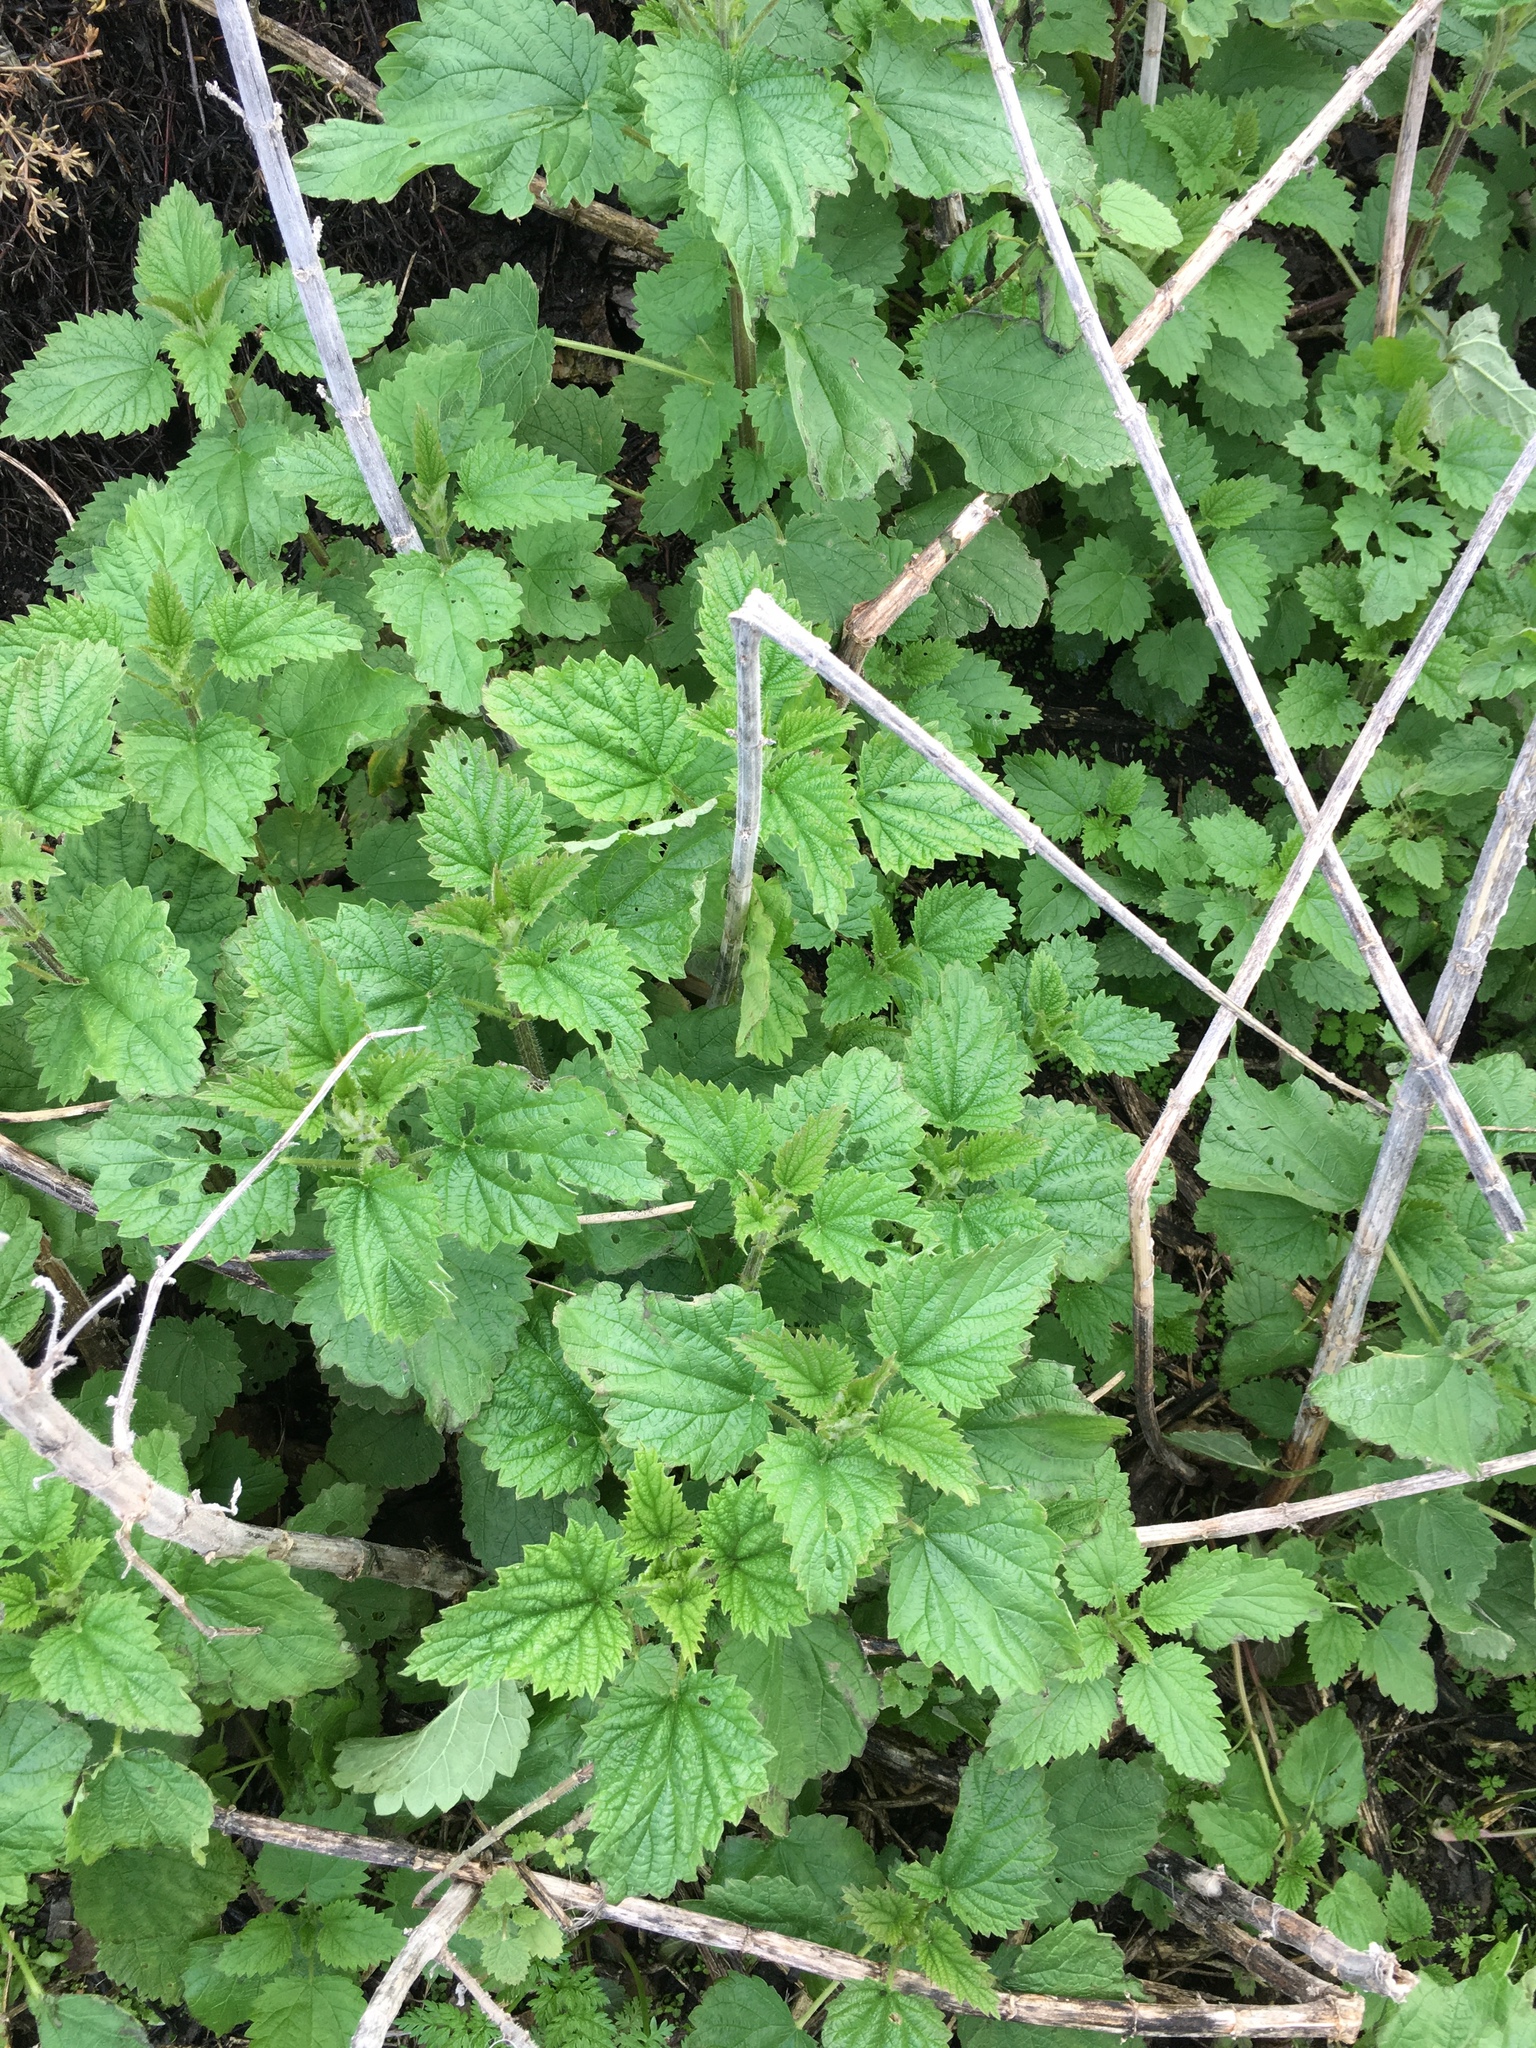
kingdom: Plantae
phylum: Tracheophyta
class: Magnoliopsida
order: Rosales
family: Urticaceae
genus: Urtica
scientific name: Urtica dioica
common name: Common nettle
